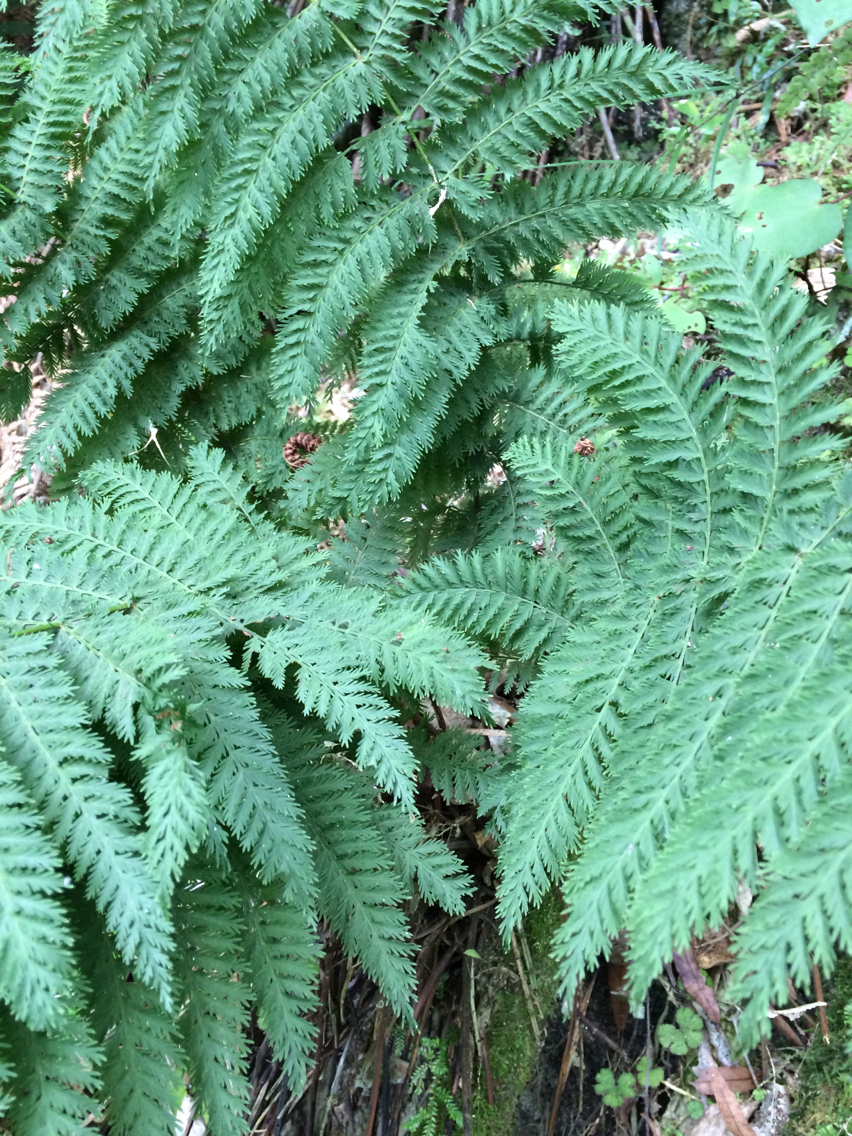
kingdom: Plantae
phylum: Tracheophyta
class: Polypodiopsida
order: Osmundales
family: Osmundaceae
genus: Leptopteris
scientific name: Leptopteris hymenophylloides
